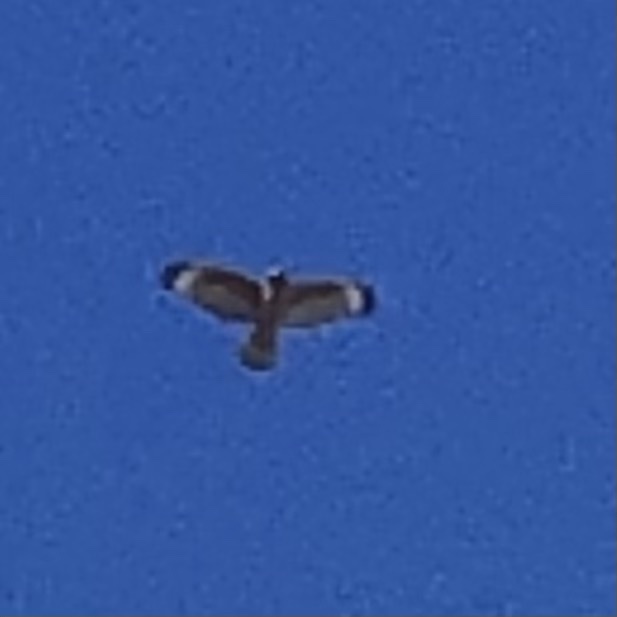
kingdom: Animalia
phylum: Chordata
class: Aves
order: Accipitriformes
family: Accipitridae
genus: Buteo
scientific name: Buteo lineatus
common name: Red-shouldered hawk
